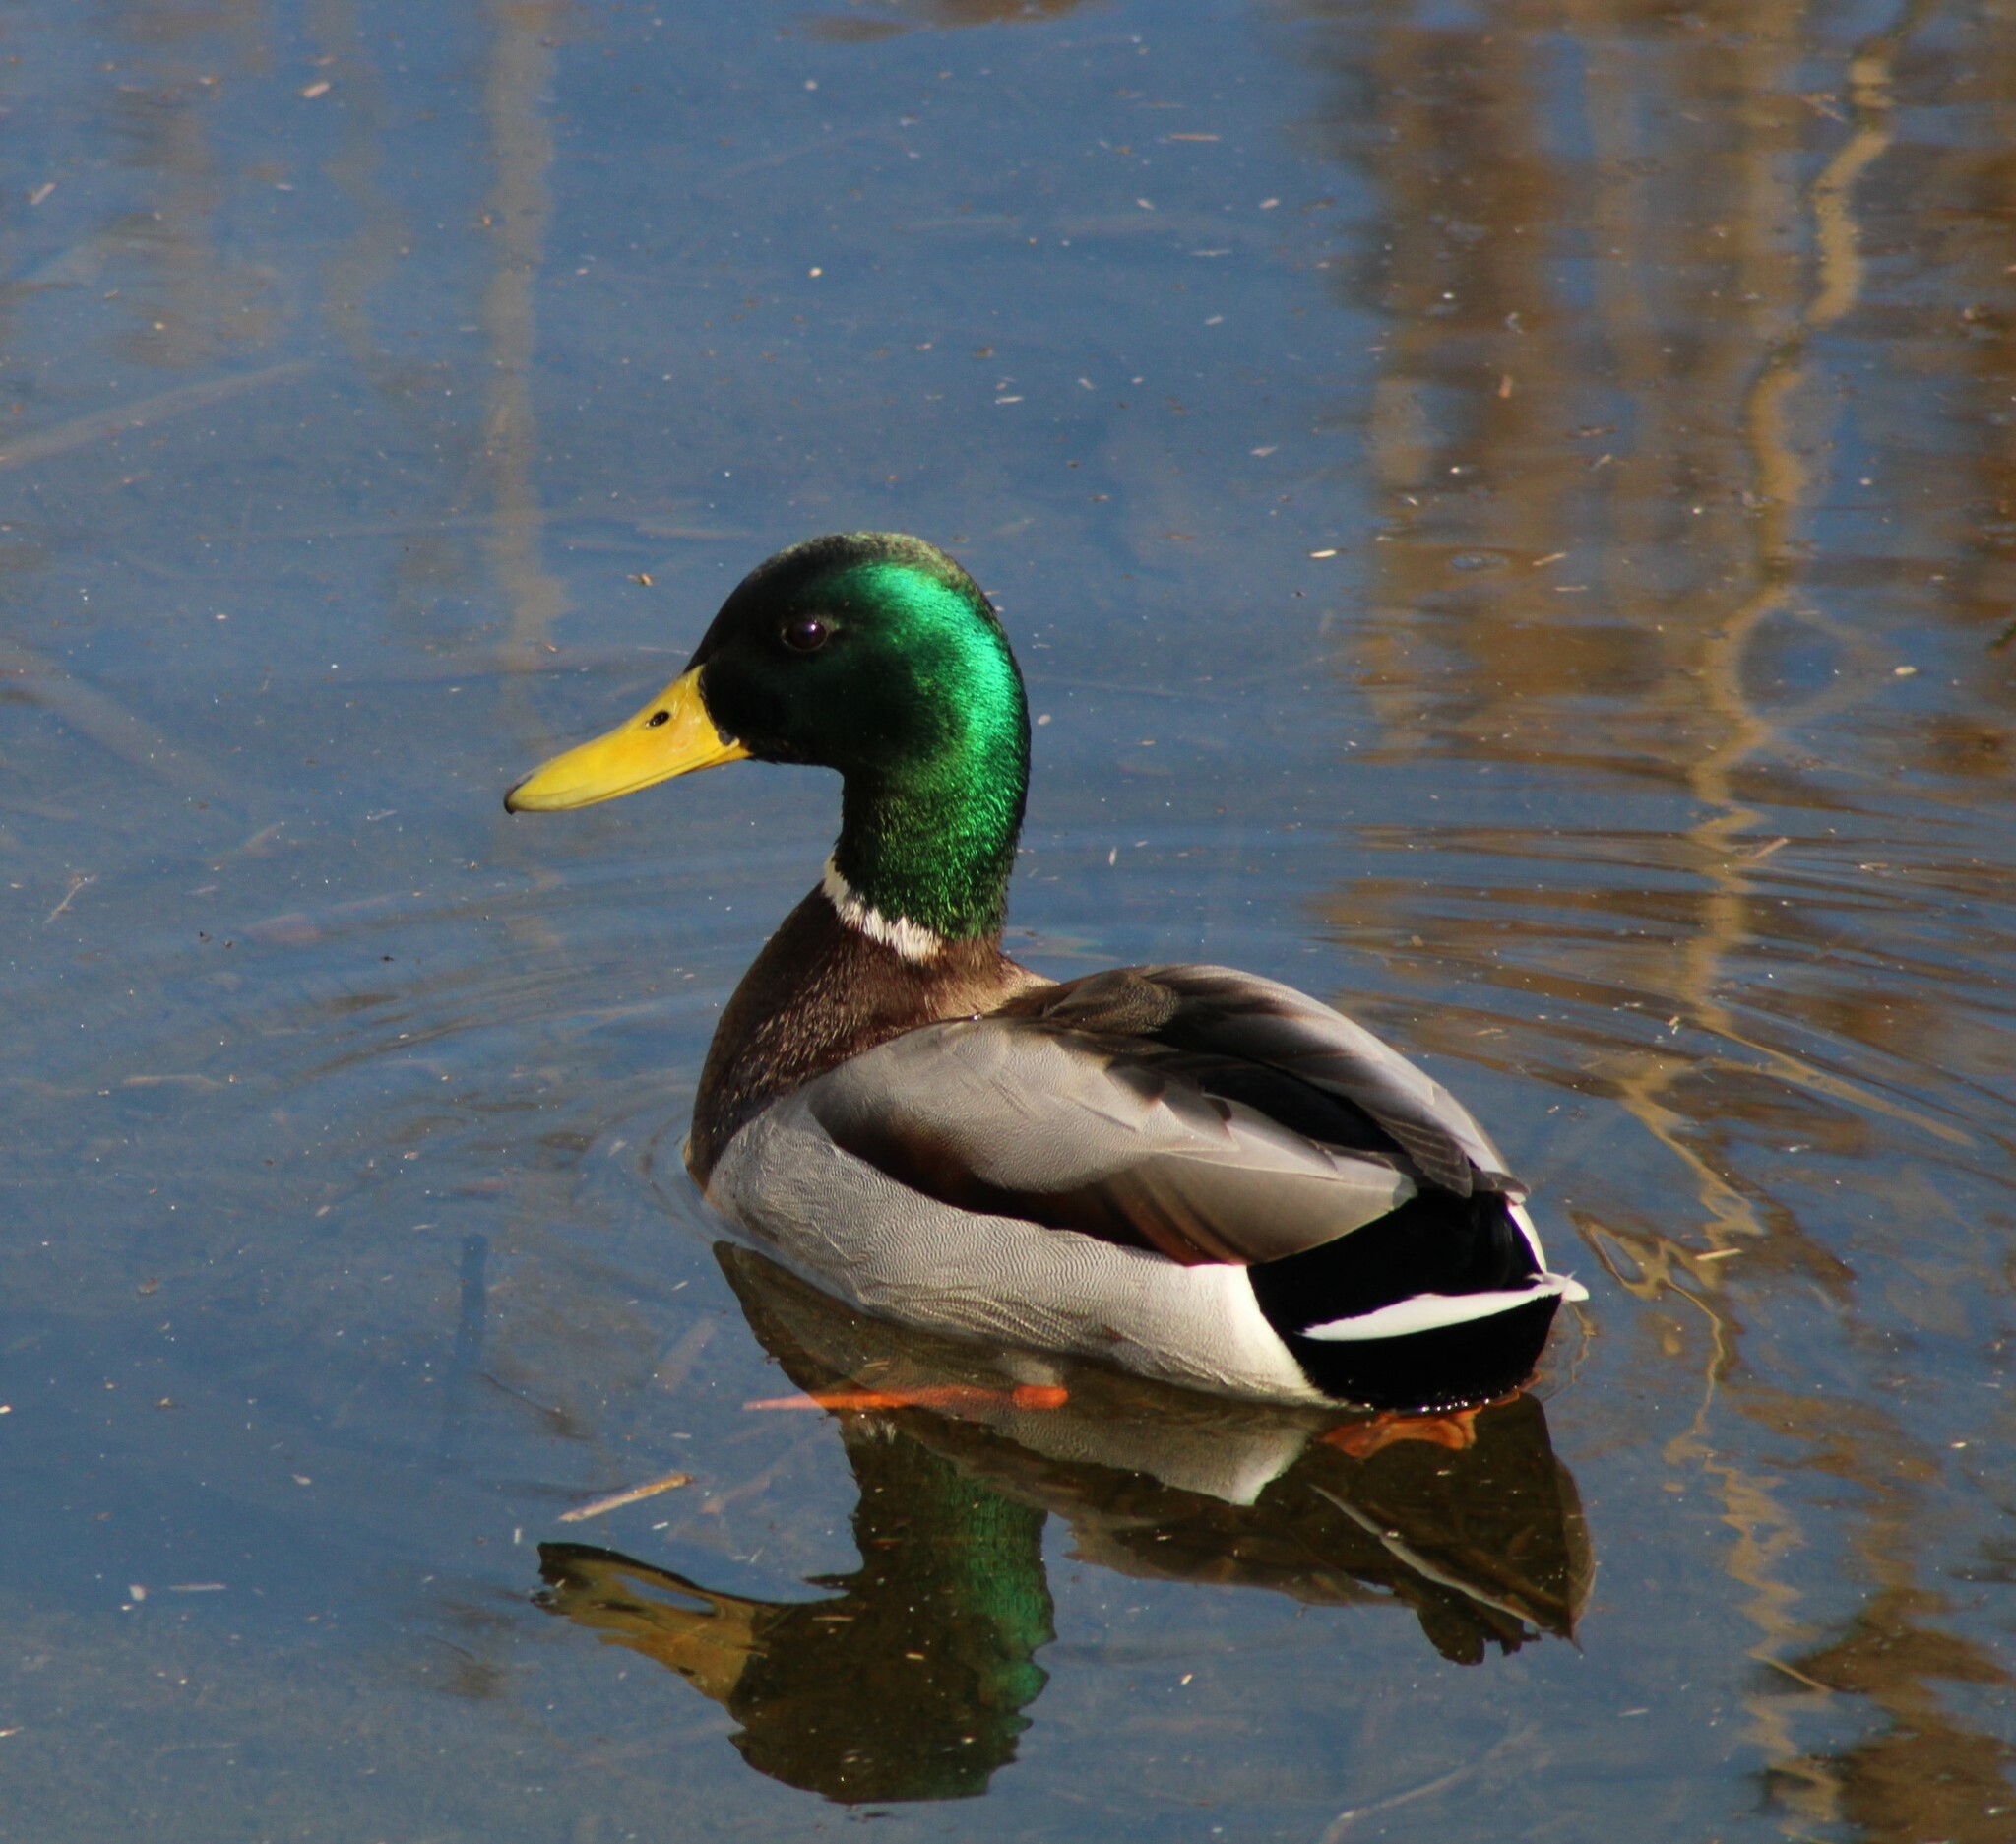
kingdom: Animalia
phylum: Chordata
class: Aves
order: Anseriformes
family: Anatidae
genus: Anas
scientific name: Anas platyrhynchos
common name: Mallard
